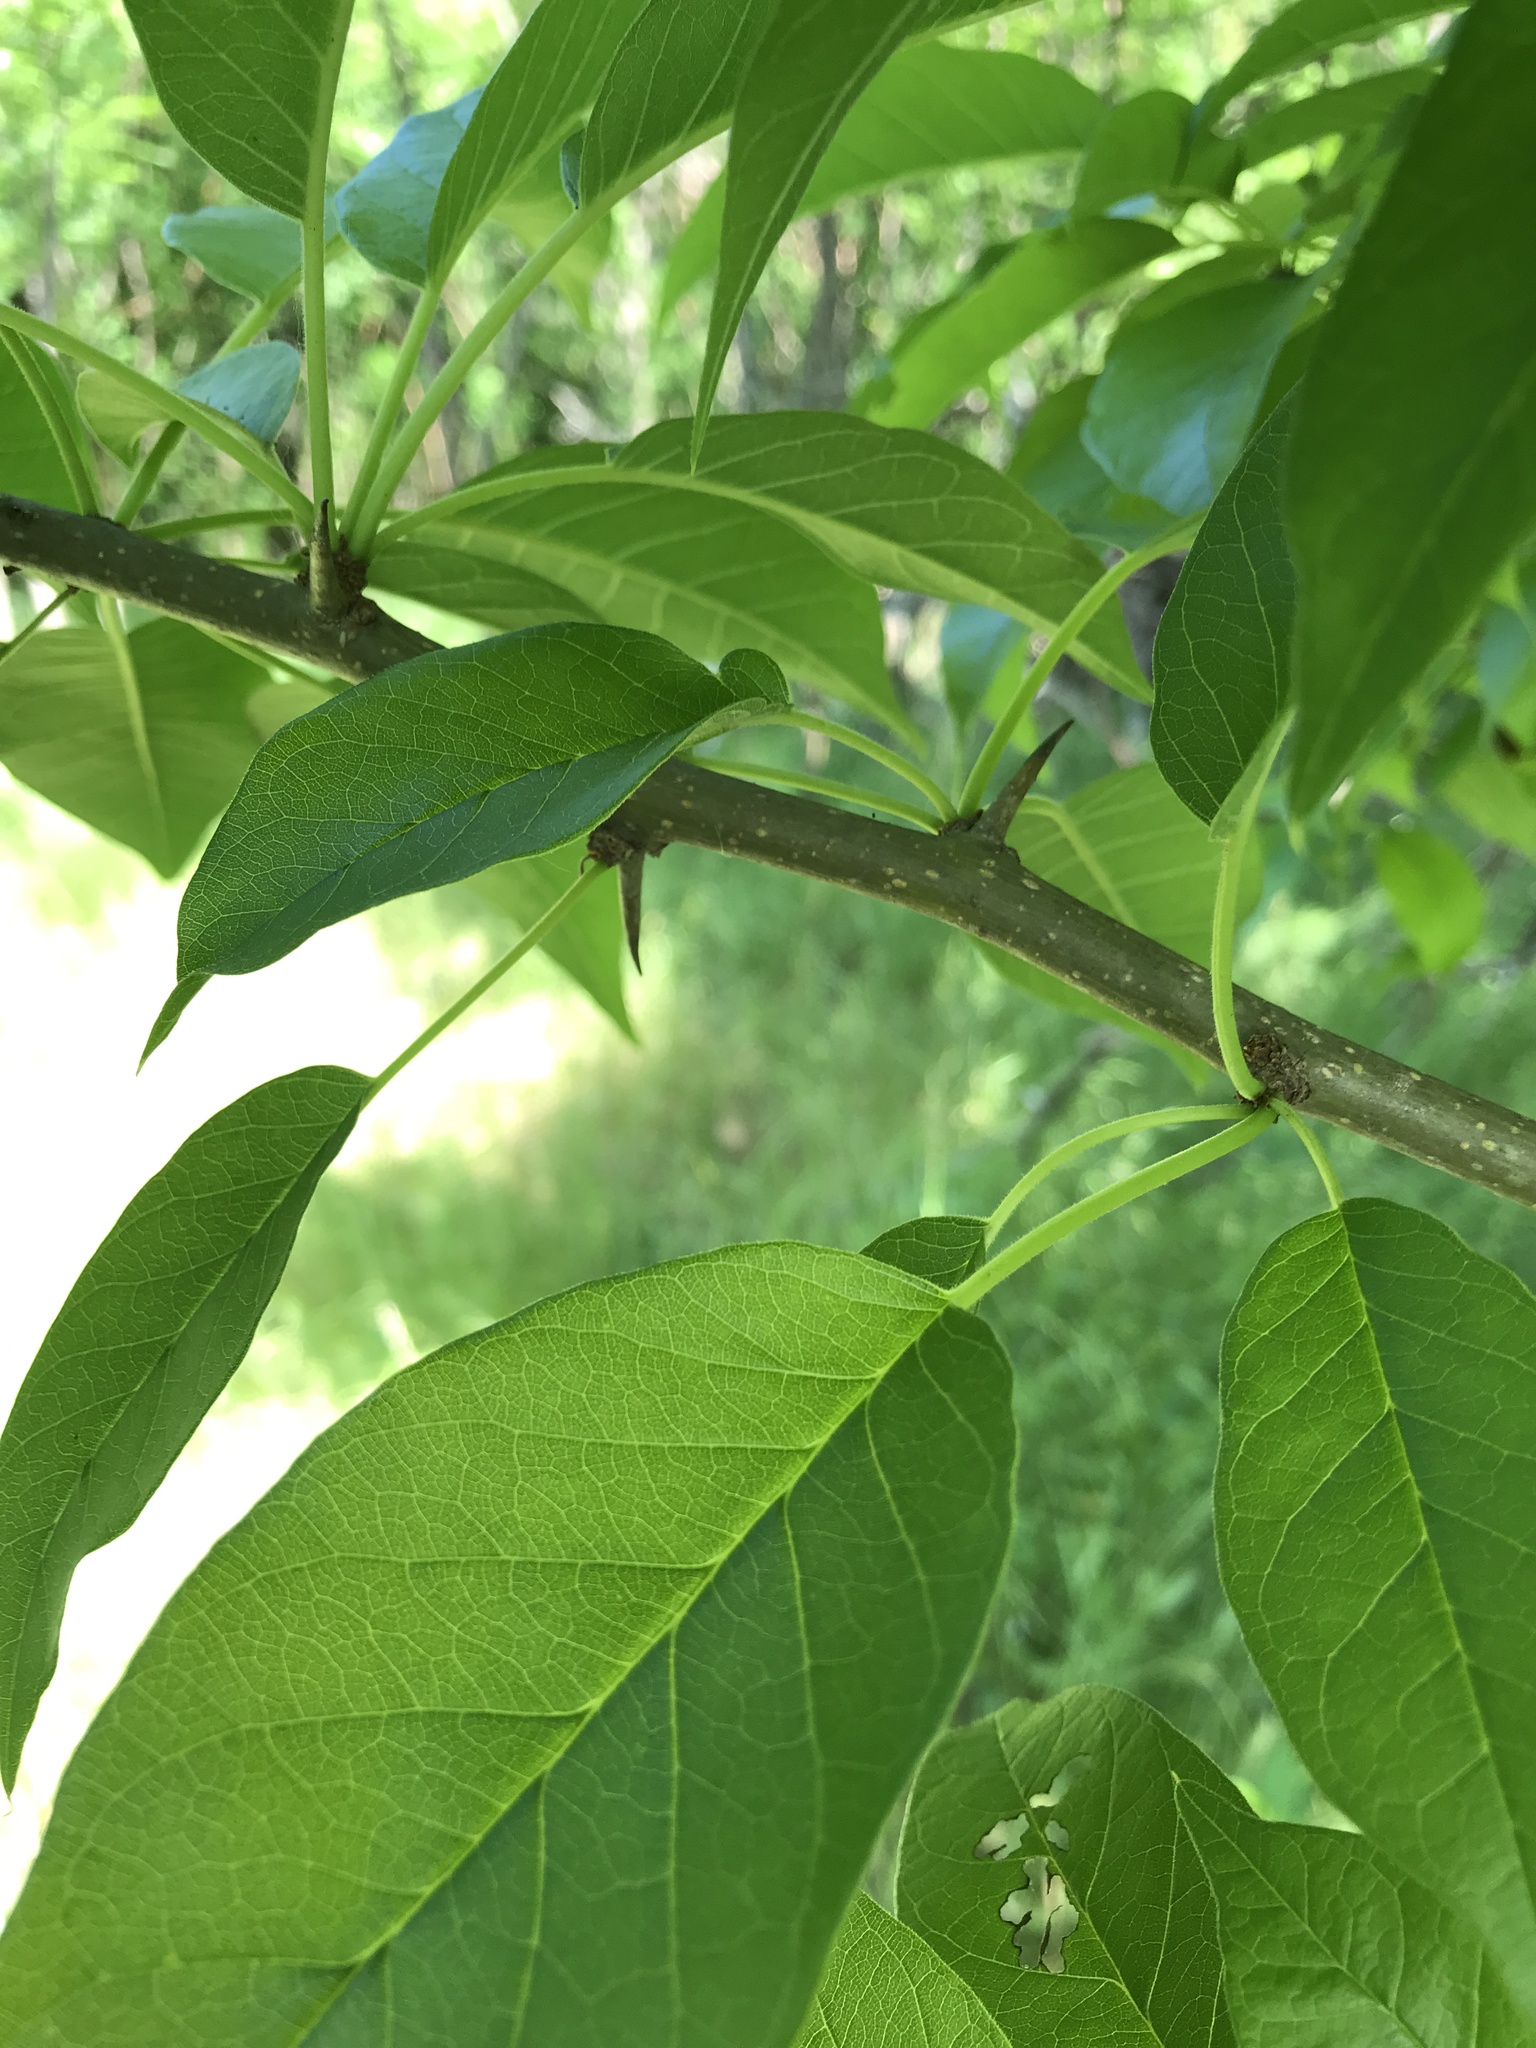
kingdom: Plantae
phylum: Tracheophyta
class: Magnoliopsida
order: Rosales
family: Moraceae
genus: Maclura
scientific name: Maclura pomifera
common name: Osage-orange
